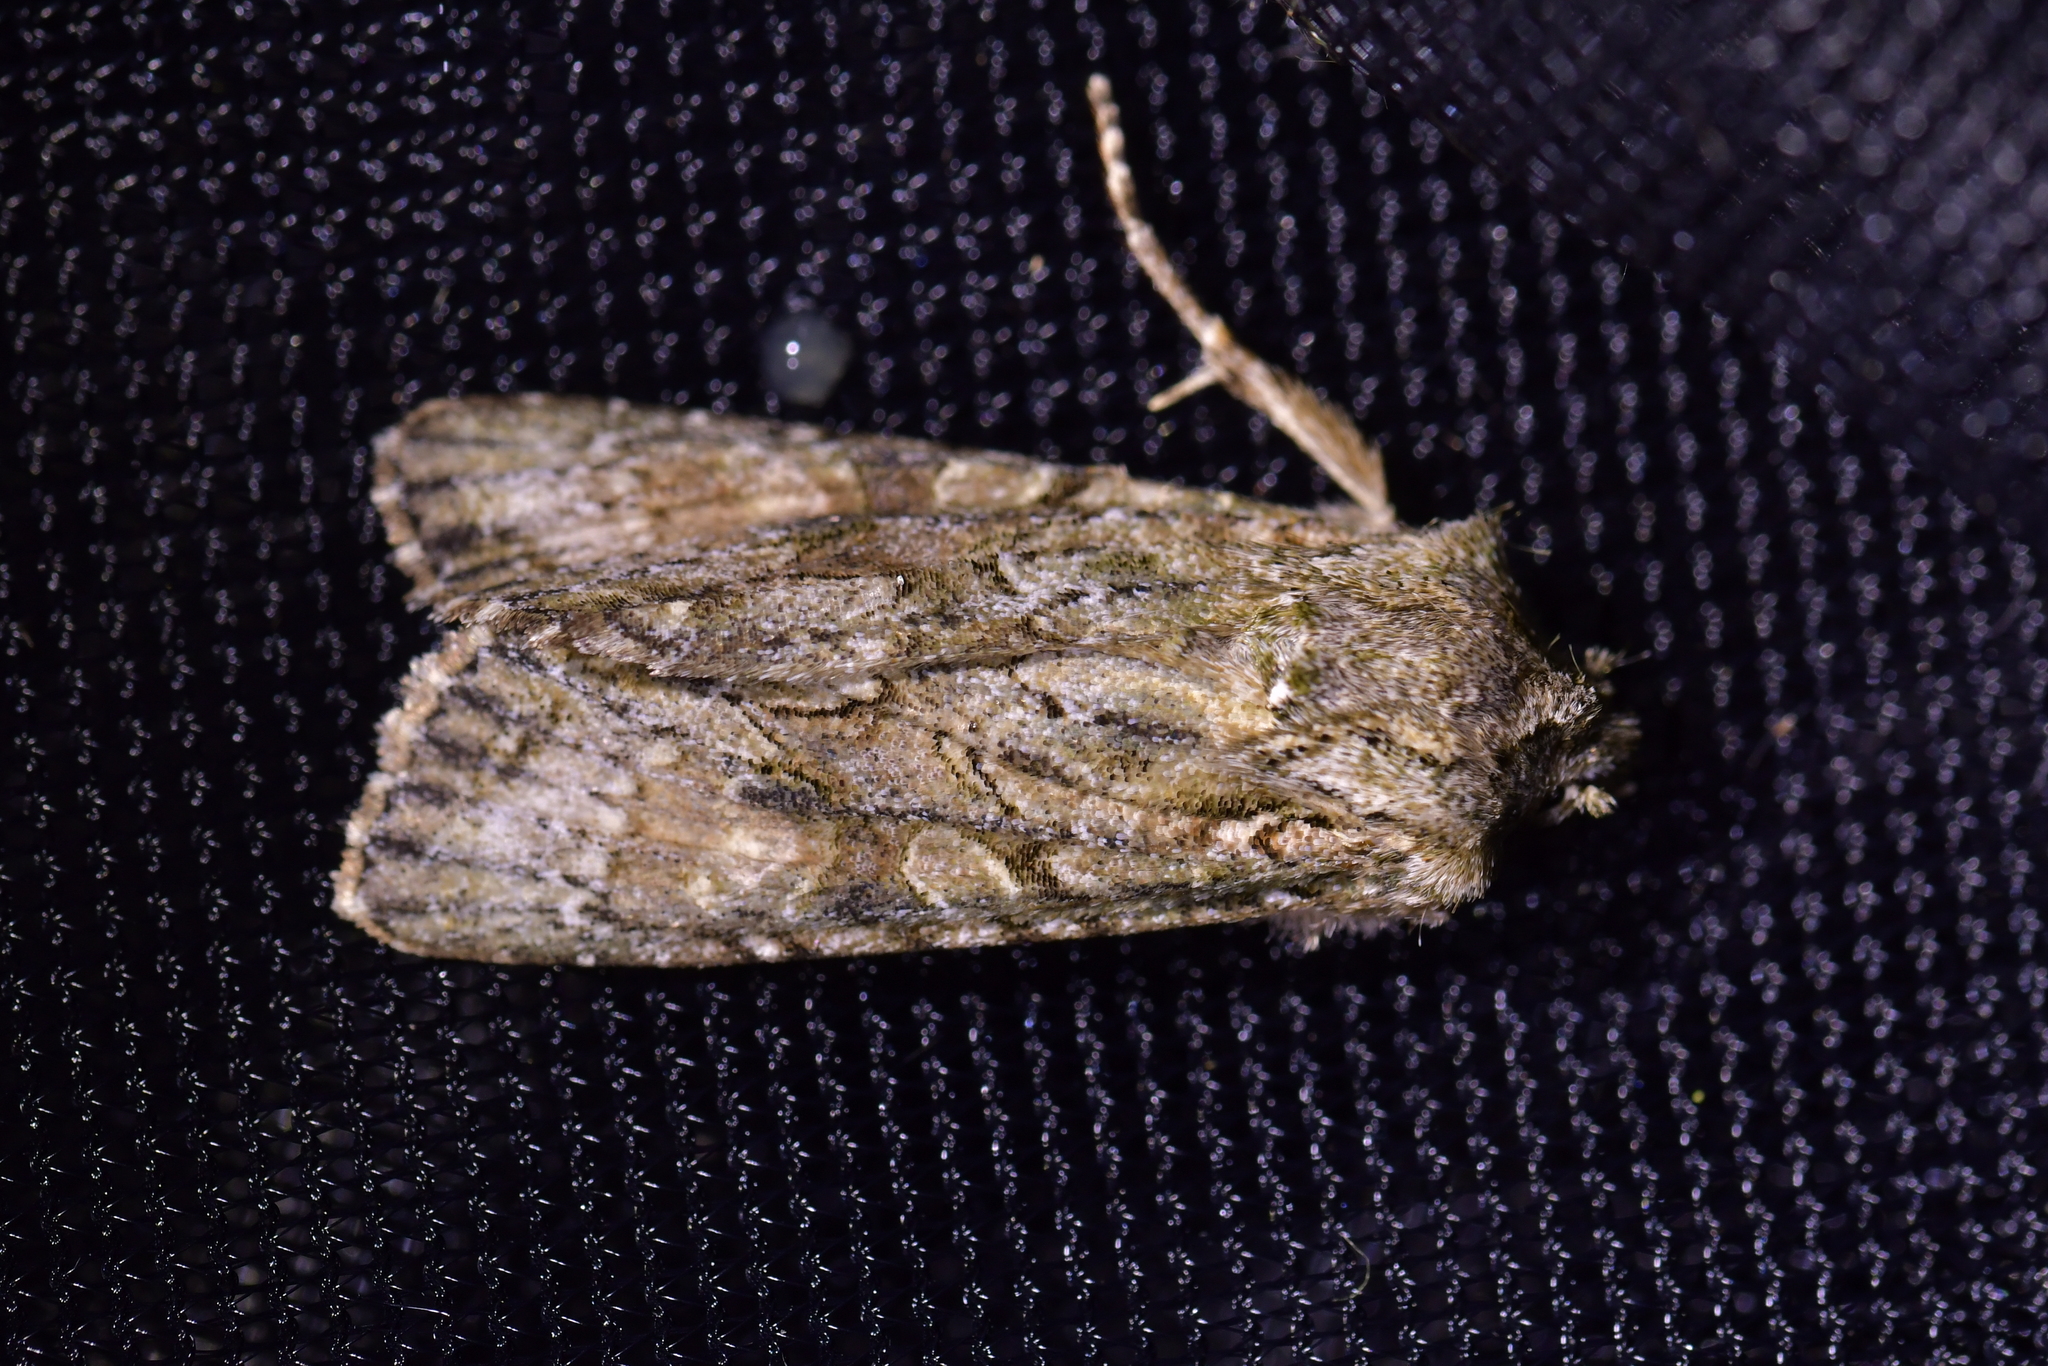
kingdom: Animalia
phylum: Arthropoda
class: Insecta
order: Lepidoptera
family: Noctuidae
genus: Ichneutica
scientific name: Ichneutica mutans
